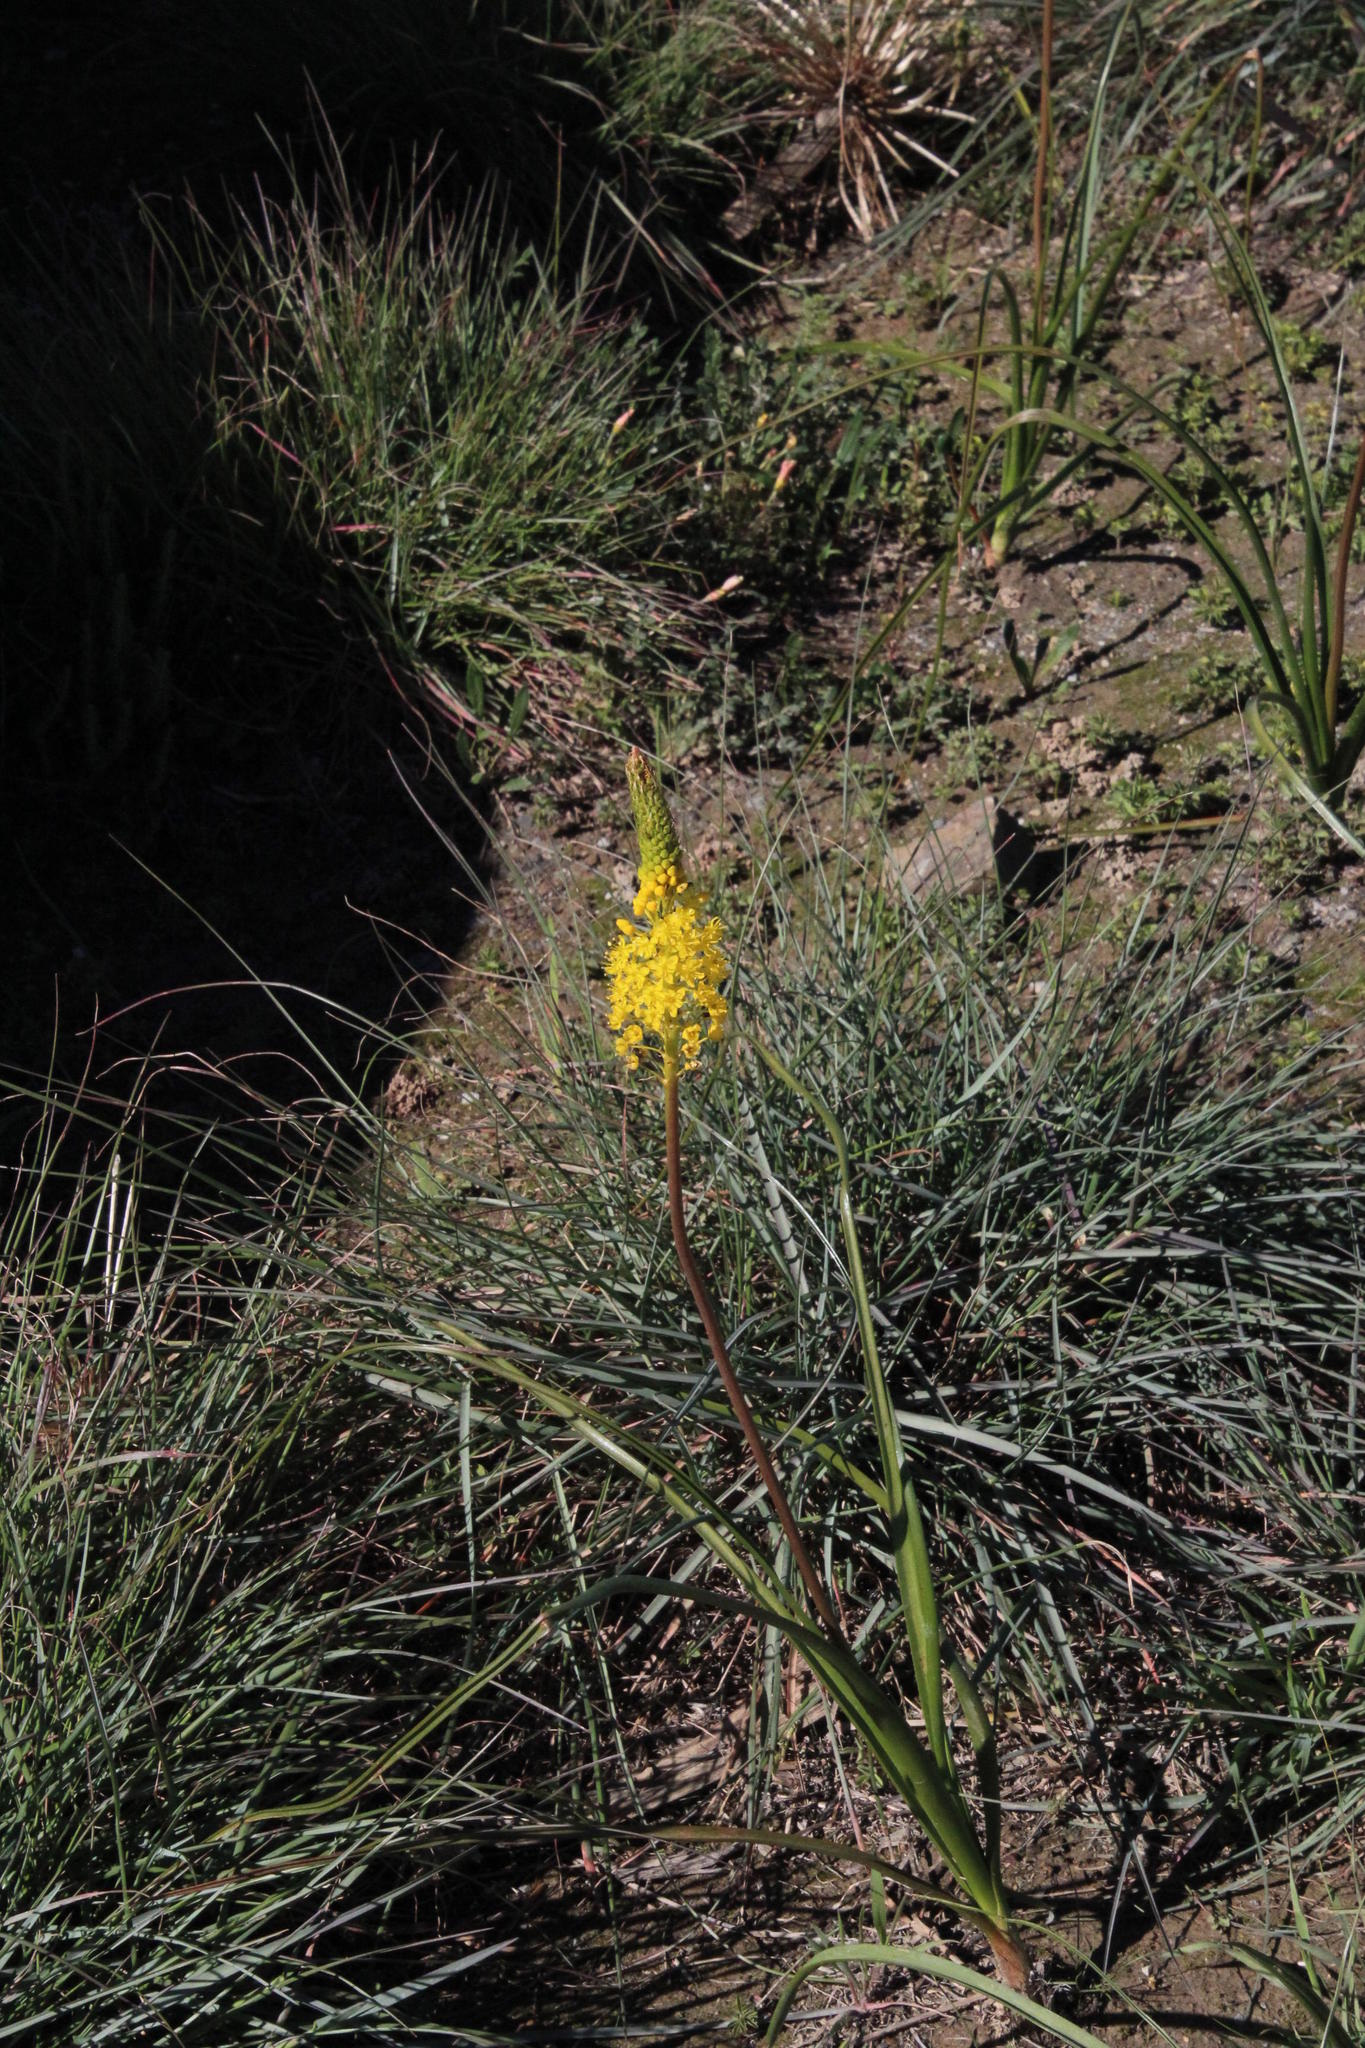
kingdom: Plantae
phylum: Tracheophyta
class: Liliopsida
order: Asparagales
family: Asphodelaceae
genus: Bulbinella
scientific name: Bulbinella latifolia
